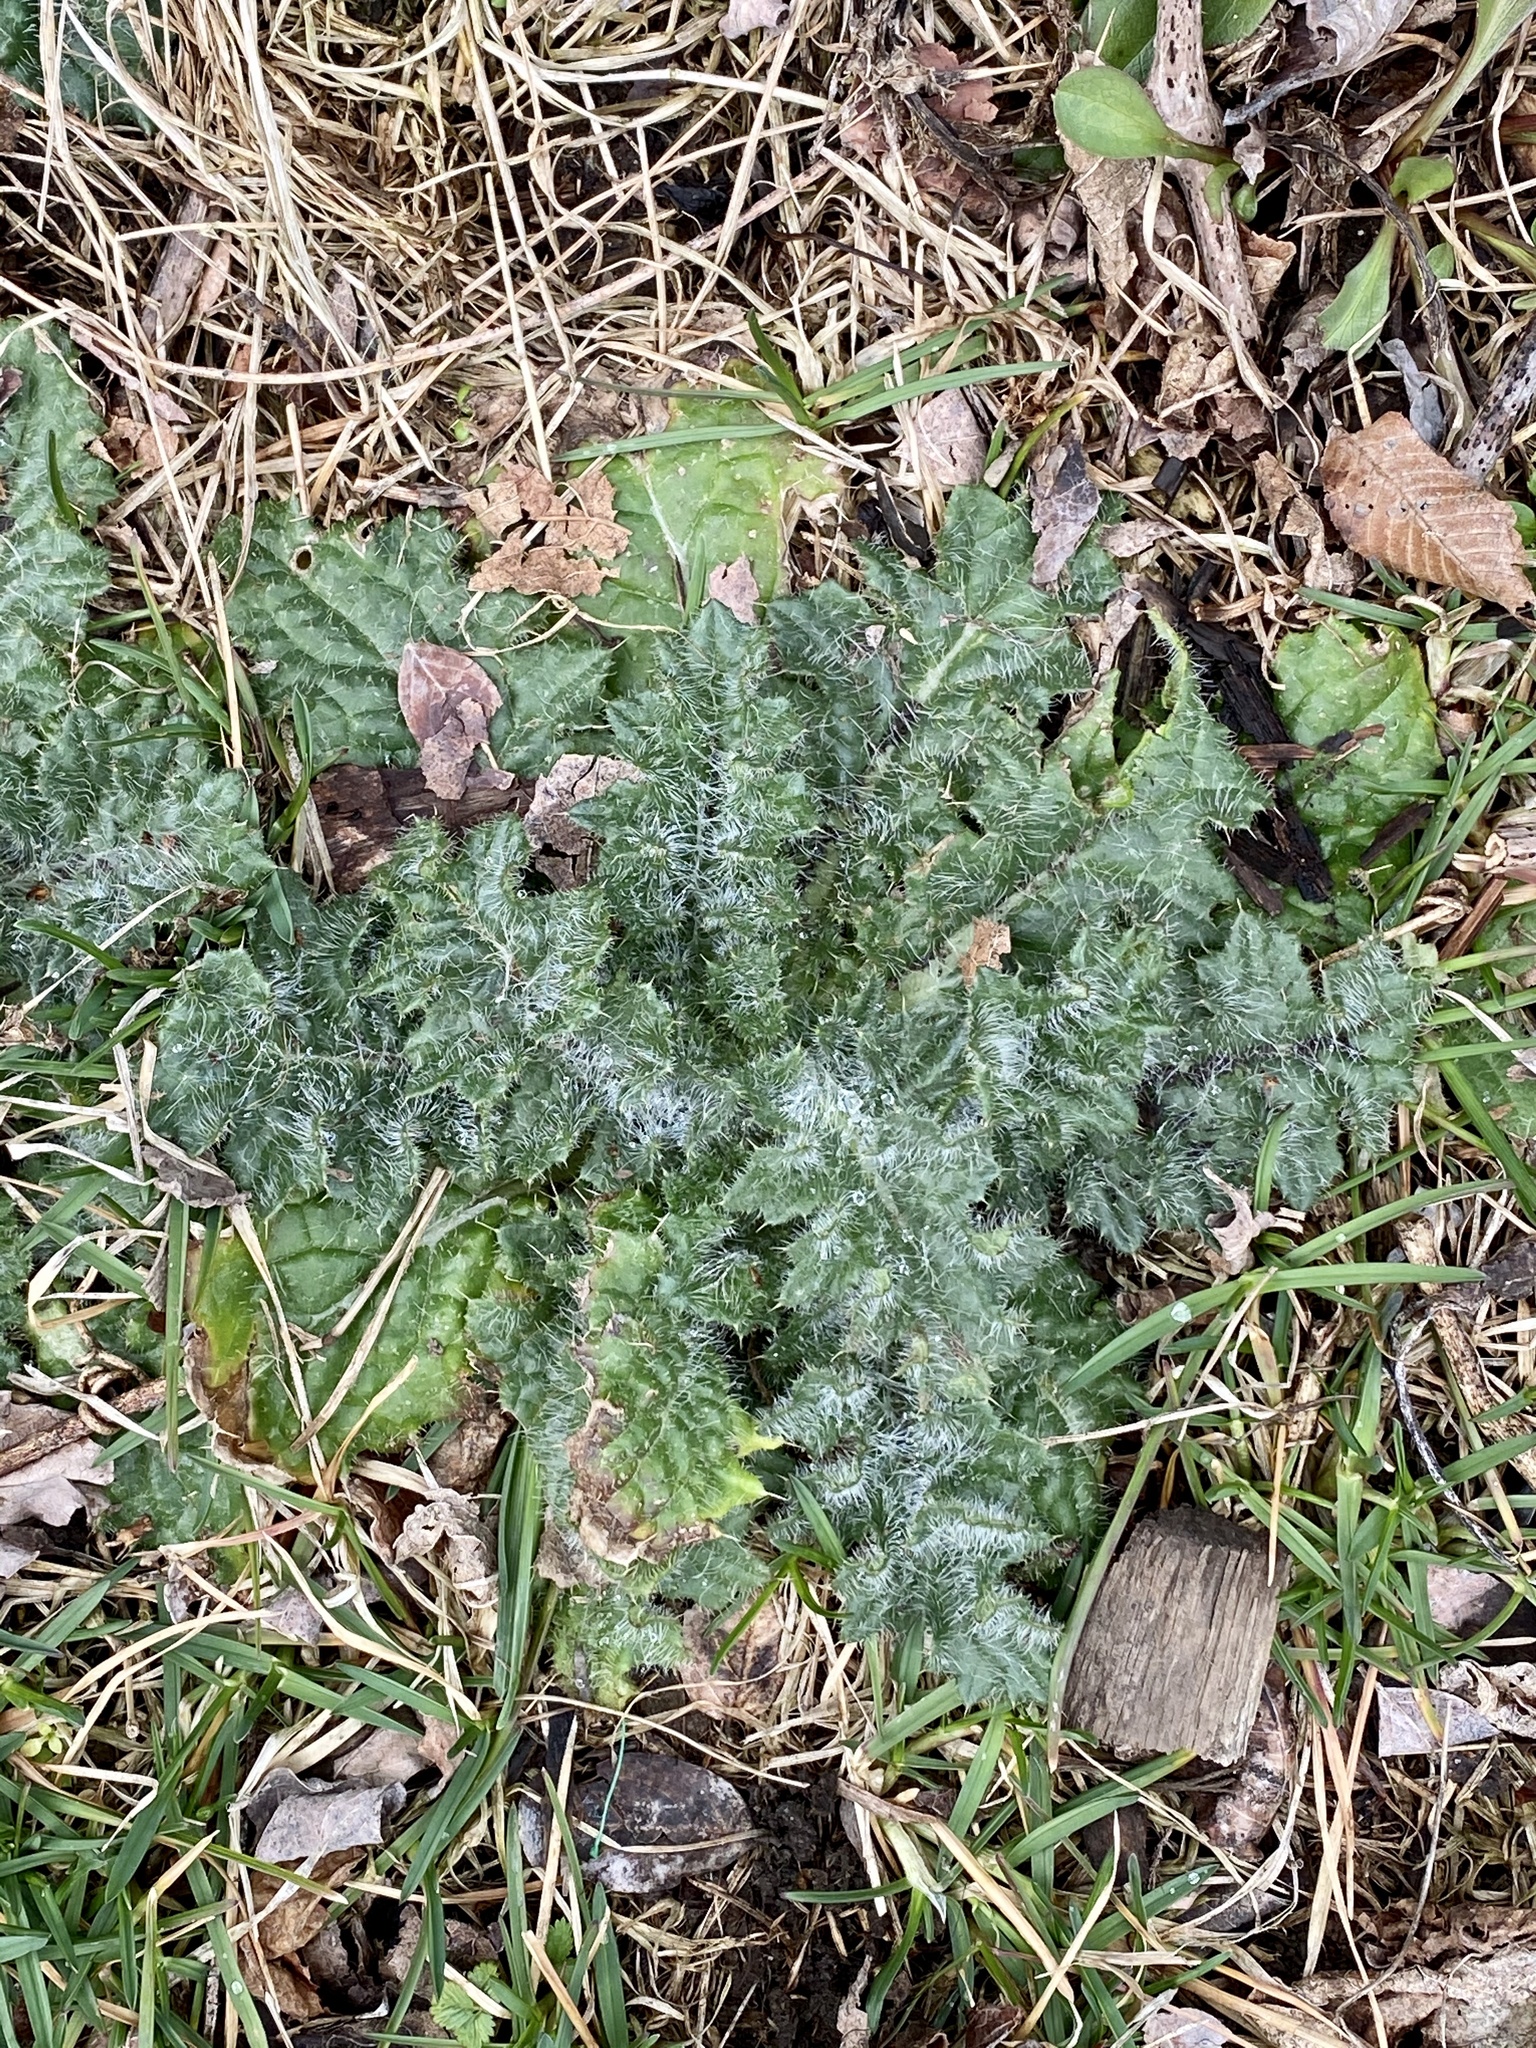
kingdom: Plantae
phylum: Tracheophyta
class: Magnoliopsida
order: Asterales
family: Asteraceae
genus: Cirsium
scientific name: Cirsium vulgare
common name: Bull thistle
